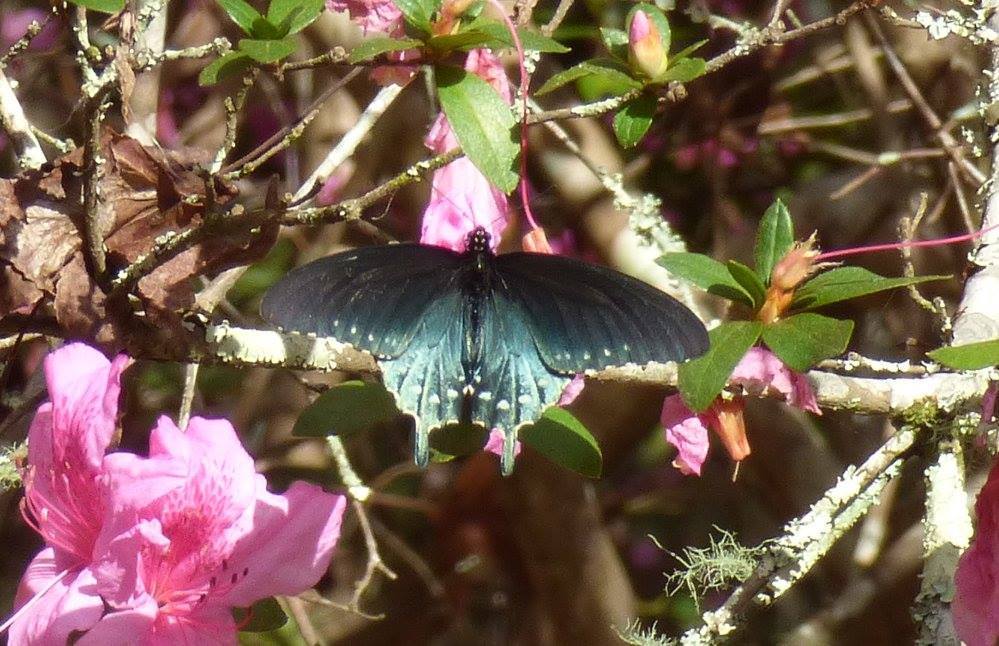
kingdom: Animalia
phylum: Arthropoda
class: Insecta
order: Lepidoptera
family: Papilionidae
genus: Battus
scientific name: Battus philenor
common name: Pipevine swallowtail
